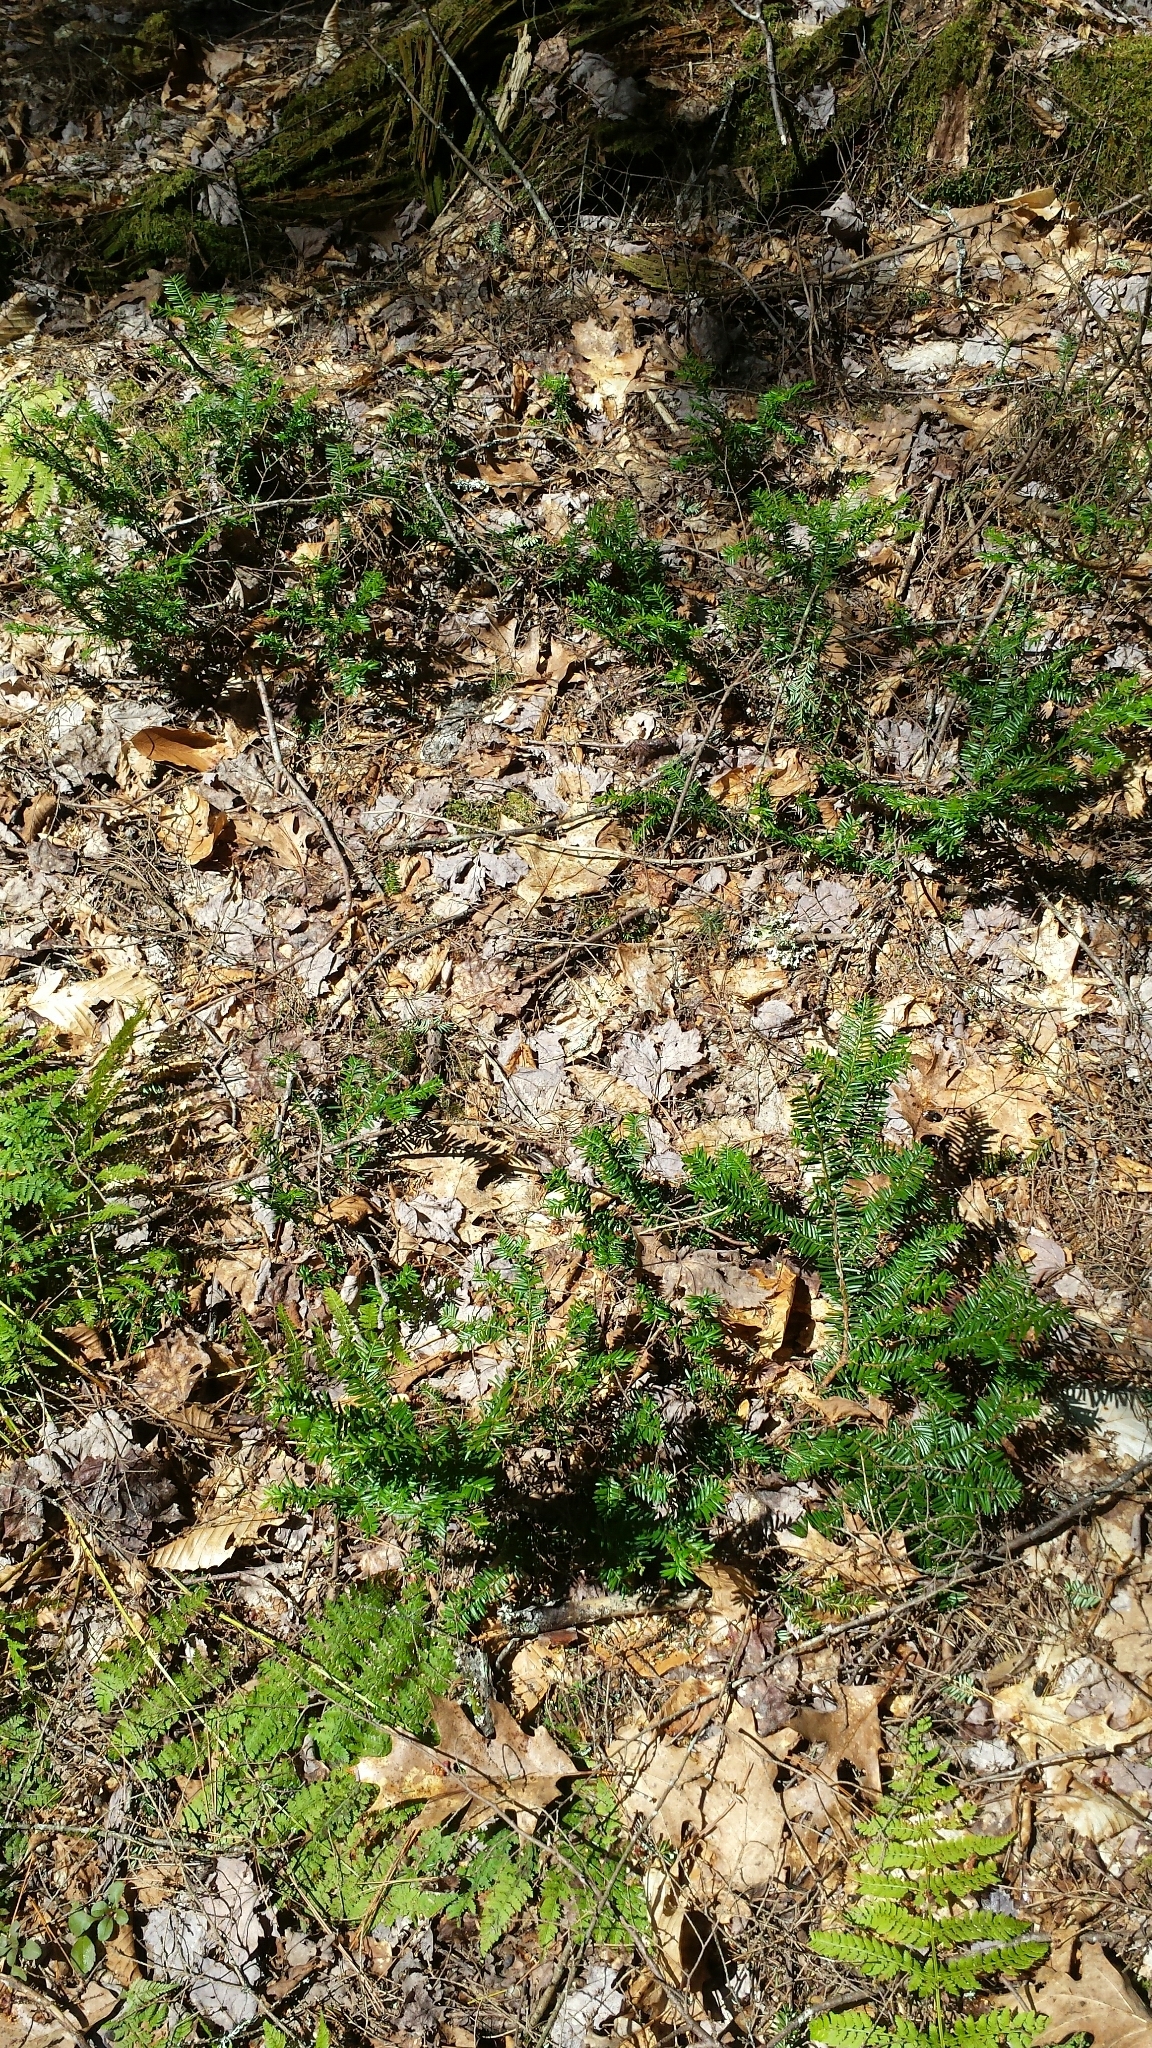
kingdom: Plantae
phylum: Tracheophyta
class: Pinopsida
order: Pinales
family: Taxaceae
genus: Taxus
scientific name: Taxus canadensis
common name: American yew
